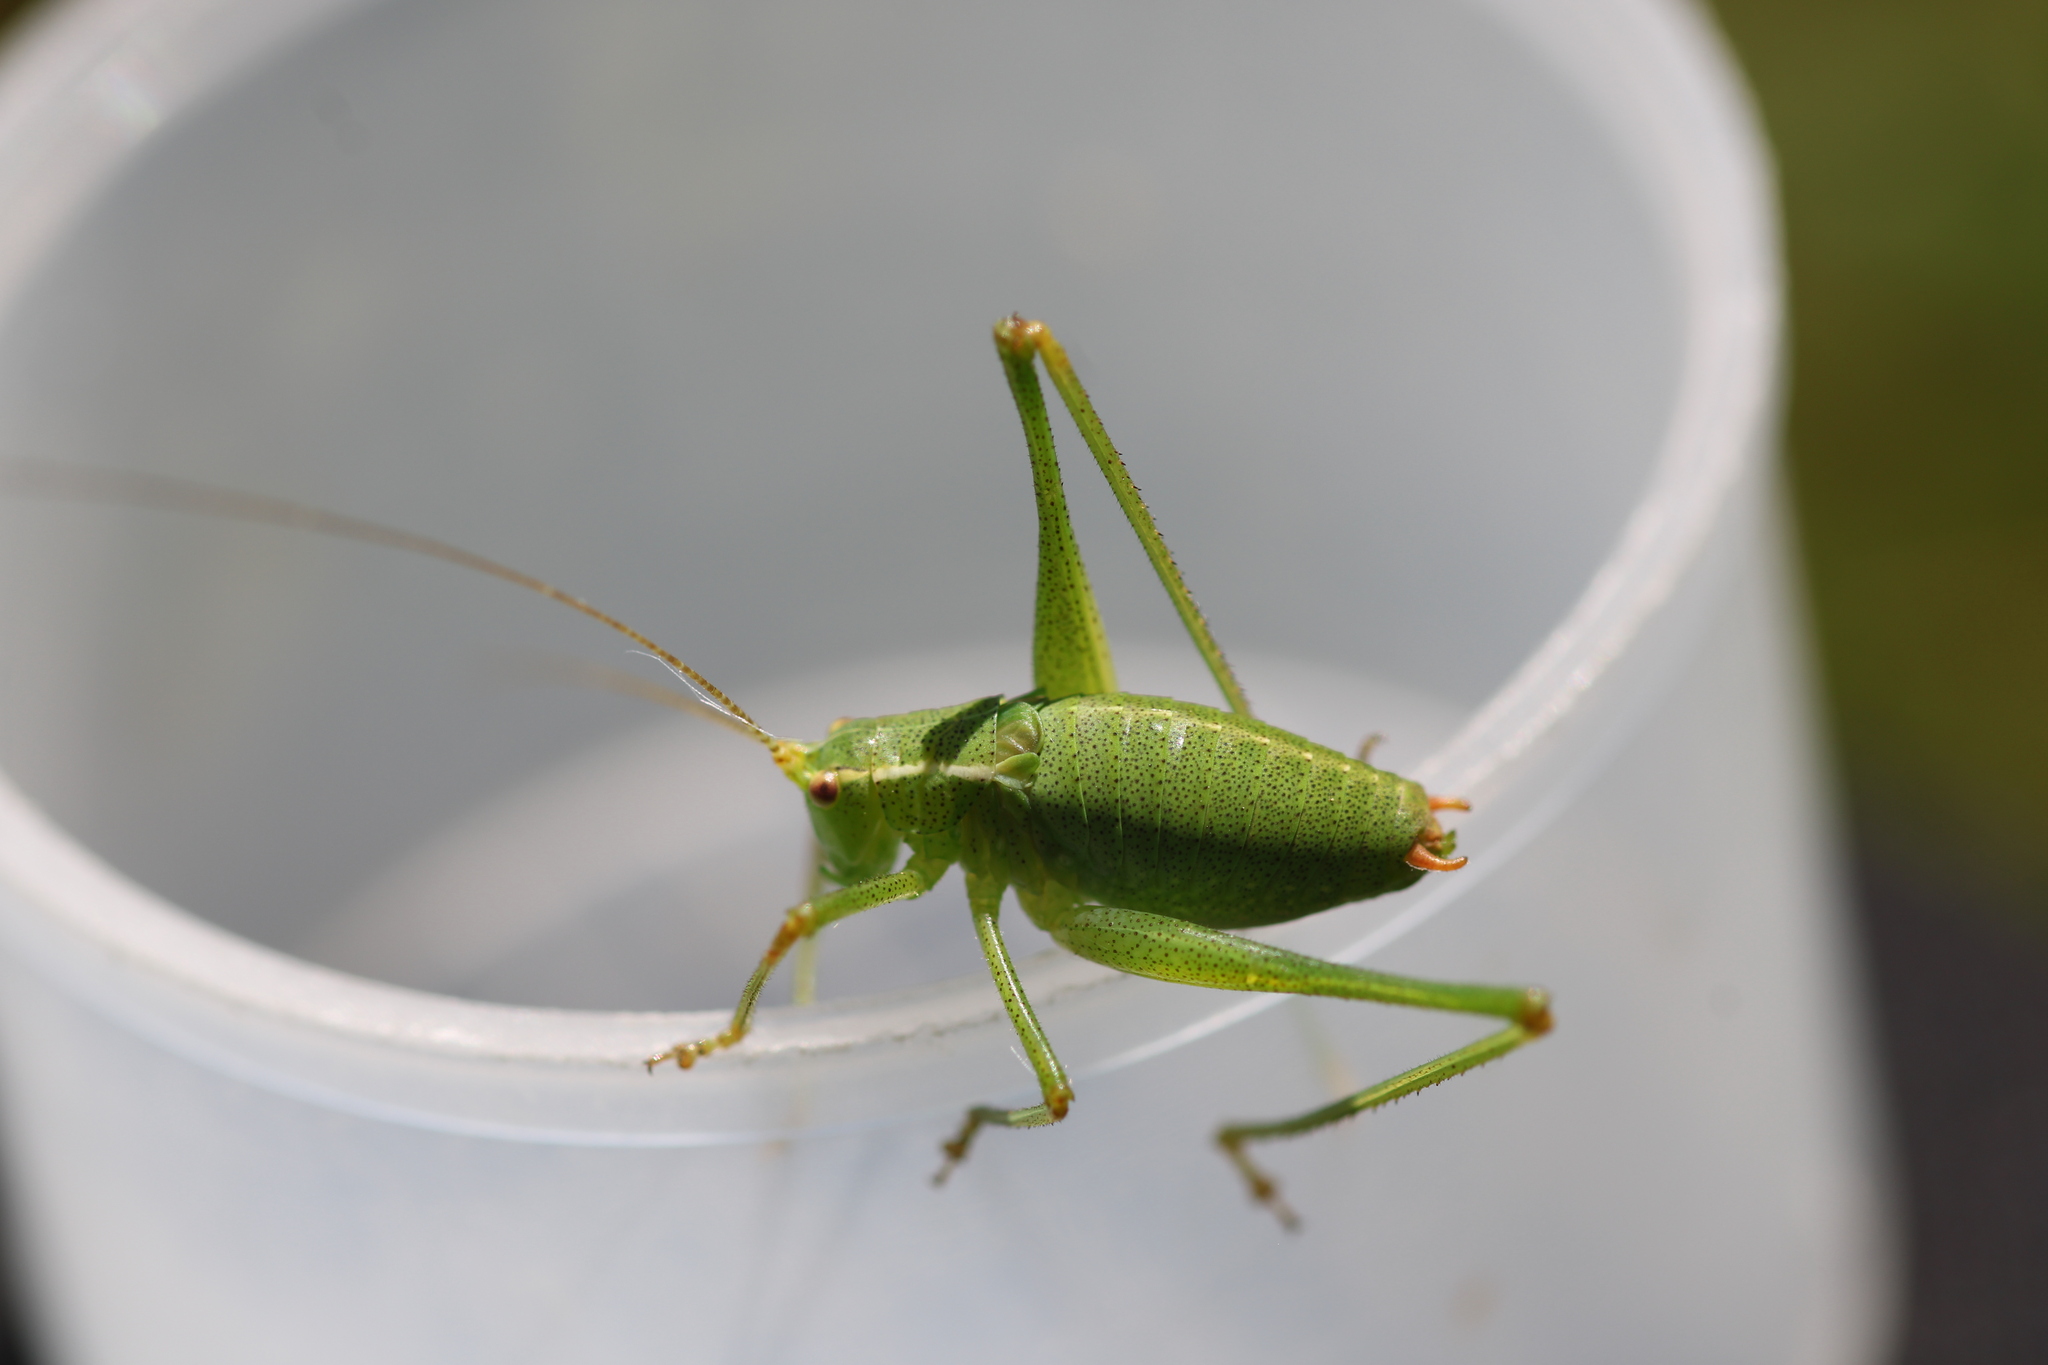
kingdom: Animalia
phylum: Arthropoda
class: Insecta
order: Orthoptera
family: Tettigoniidae
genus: Leptophyes
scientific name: Leptophyes punctatissima
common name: Speckled bush-cricket
